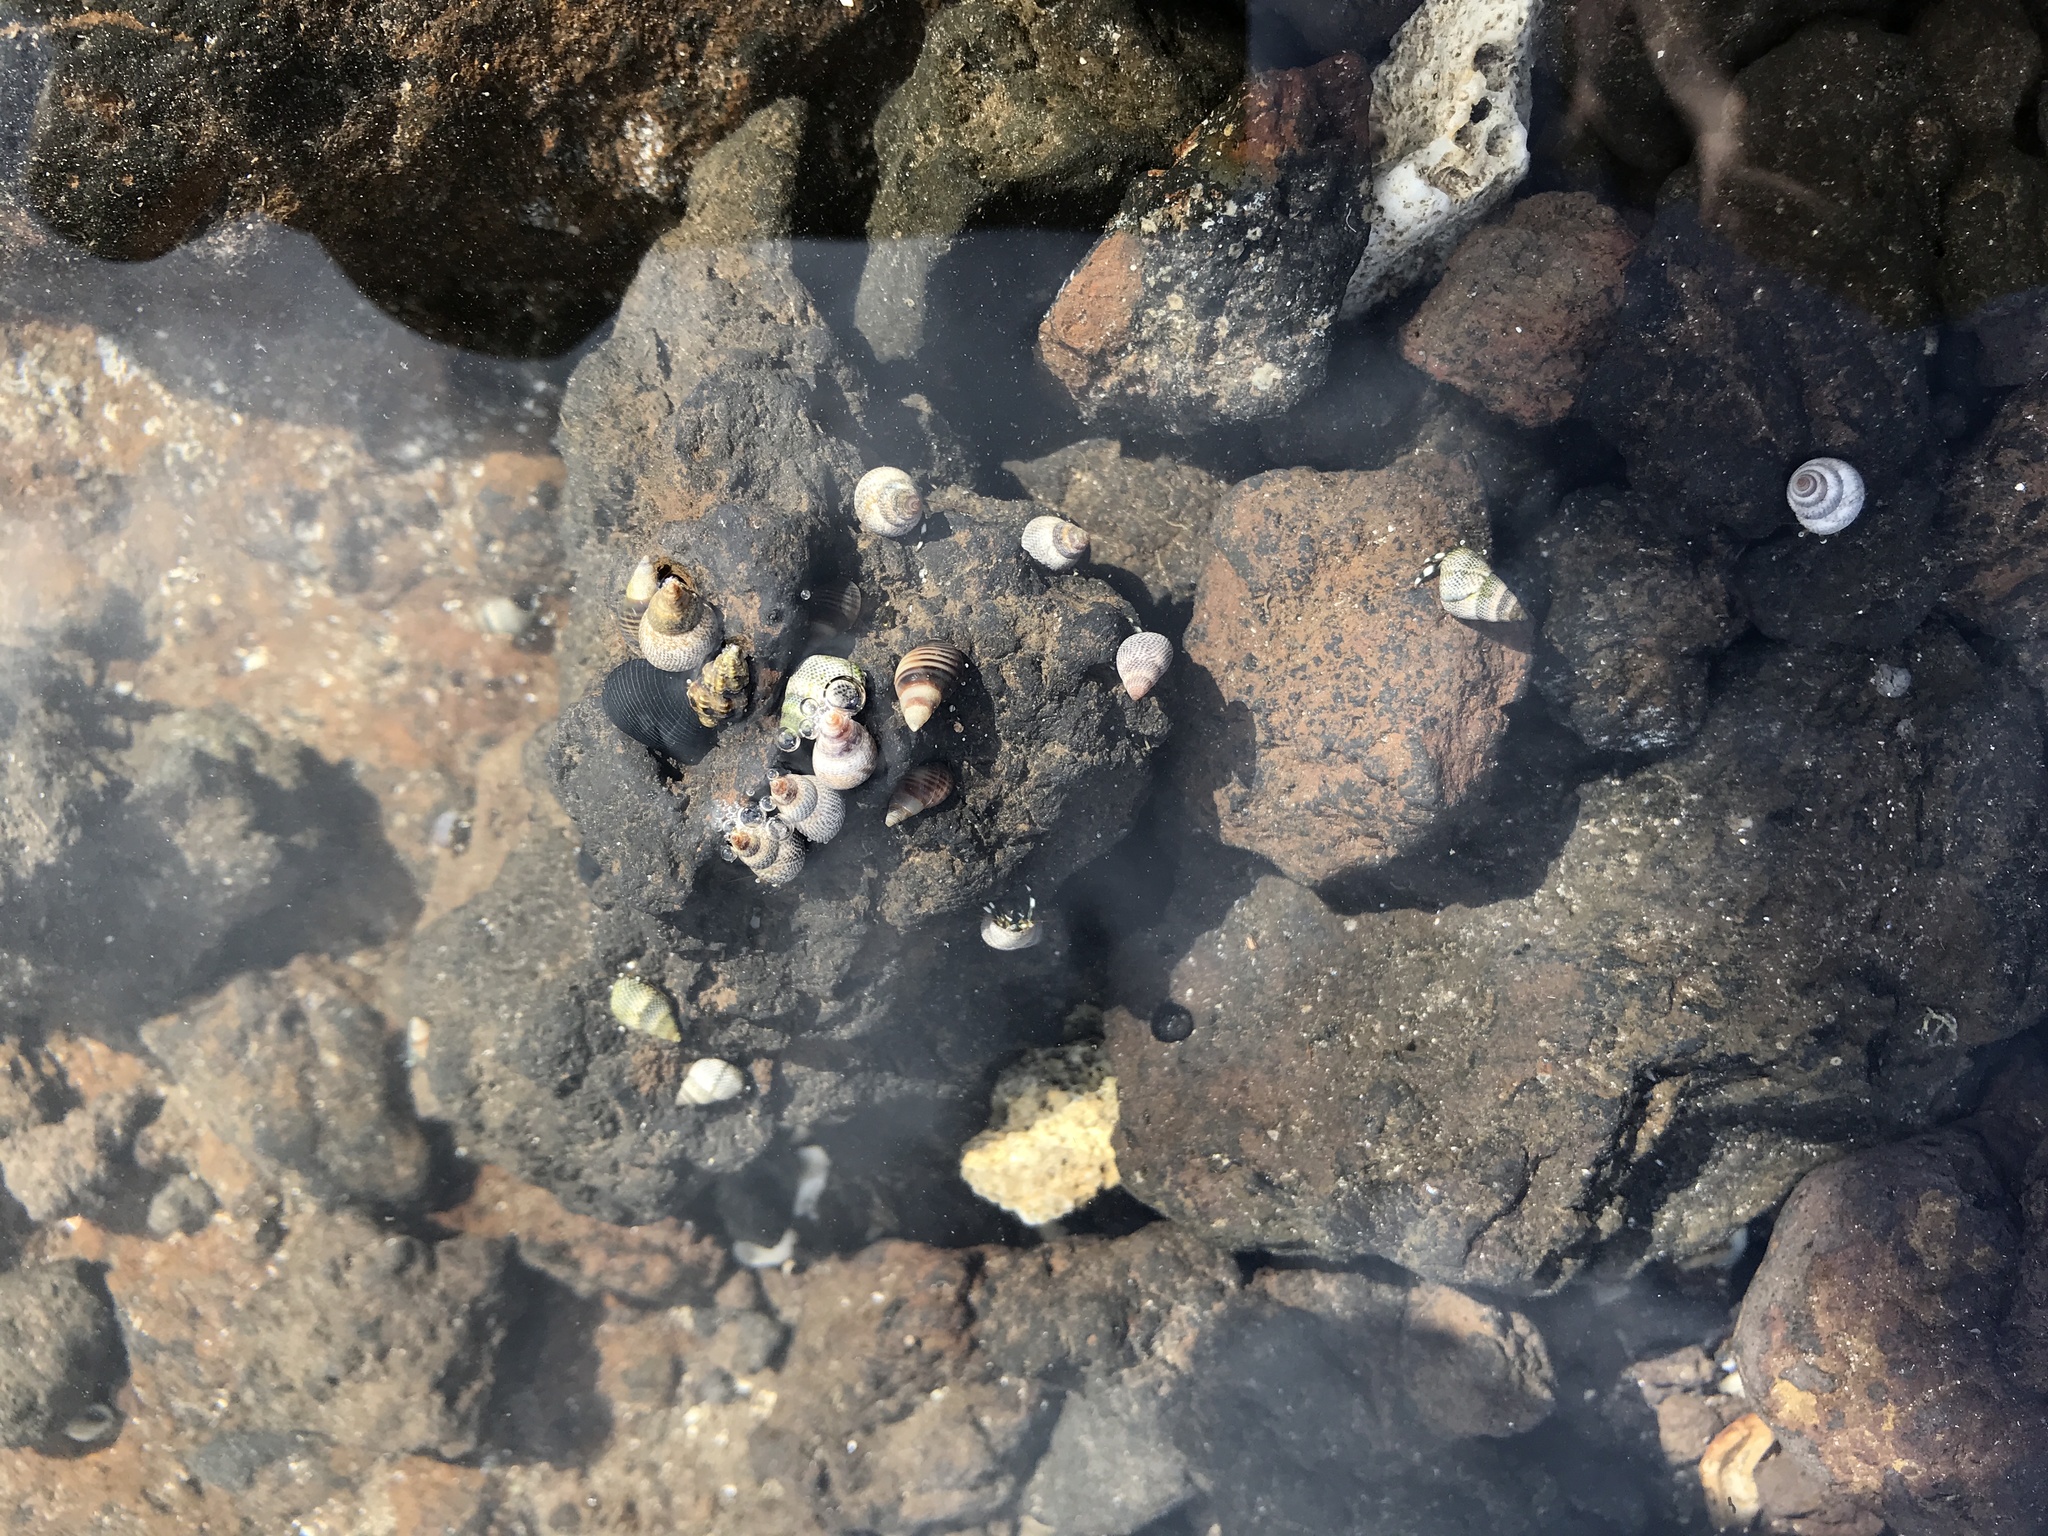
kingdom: Animalia
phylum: Mollusca
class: Gastropoda
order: Littorinimorpha
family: Littorinidae
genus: Littoraria
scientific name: Littoraria pintado
